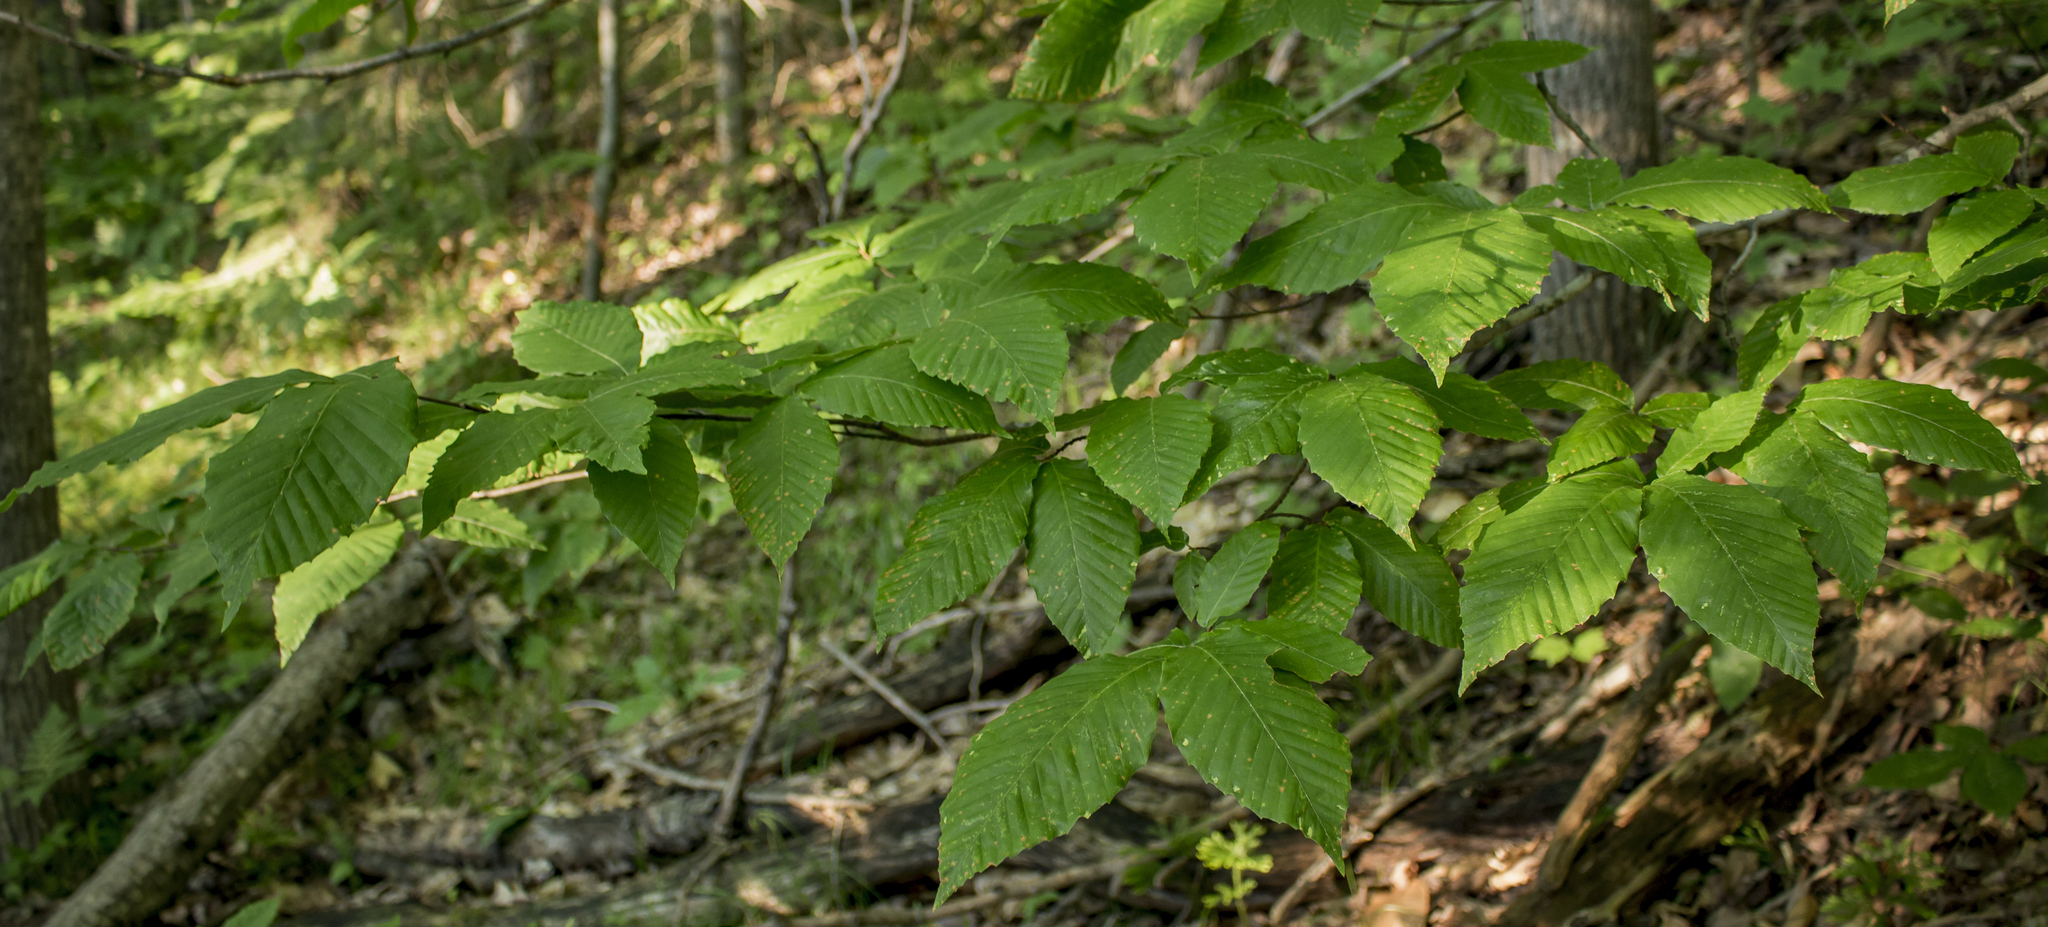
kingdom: Plantae
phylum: Tracheophyta
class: Magnoliopsida
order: Fagales
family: Fagaceae
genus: Fagus
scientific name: Fagus grandifolia
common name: American beech
